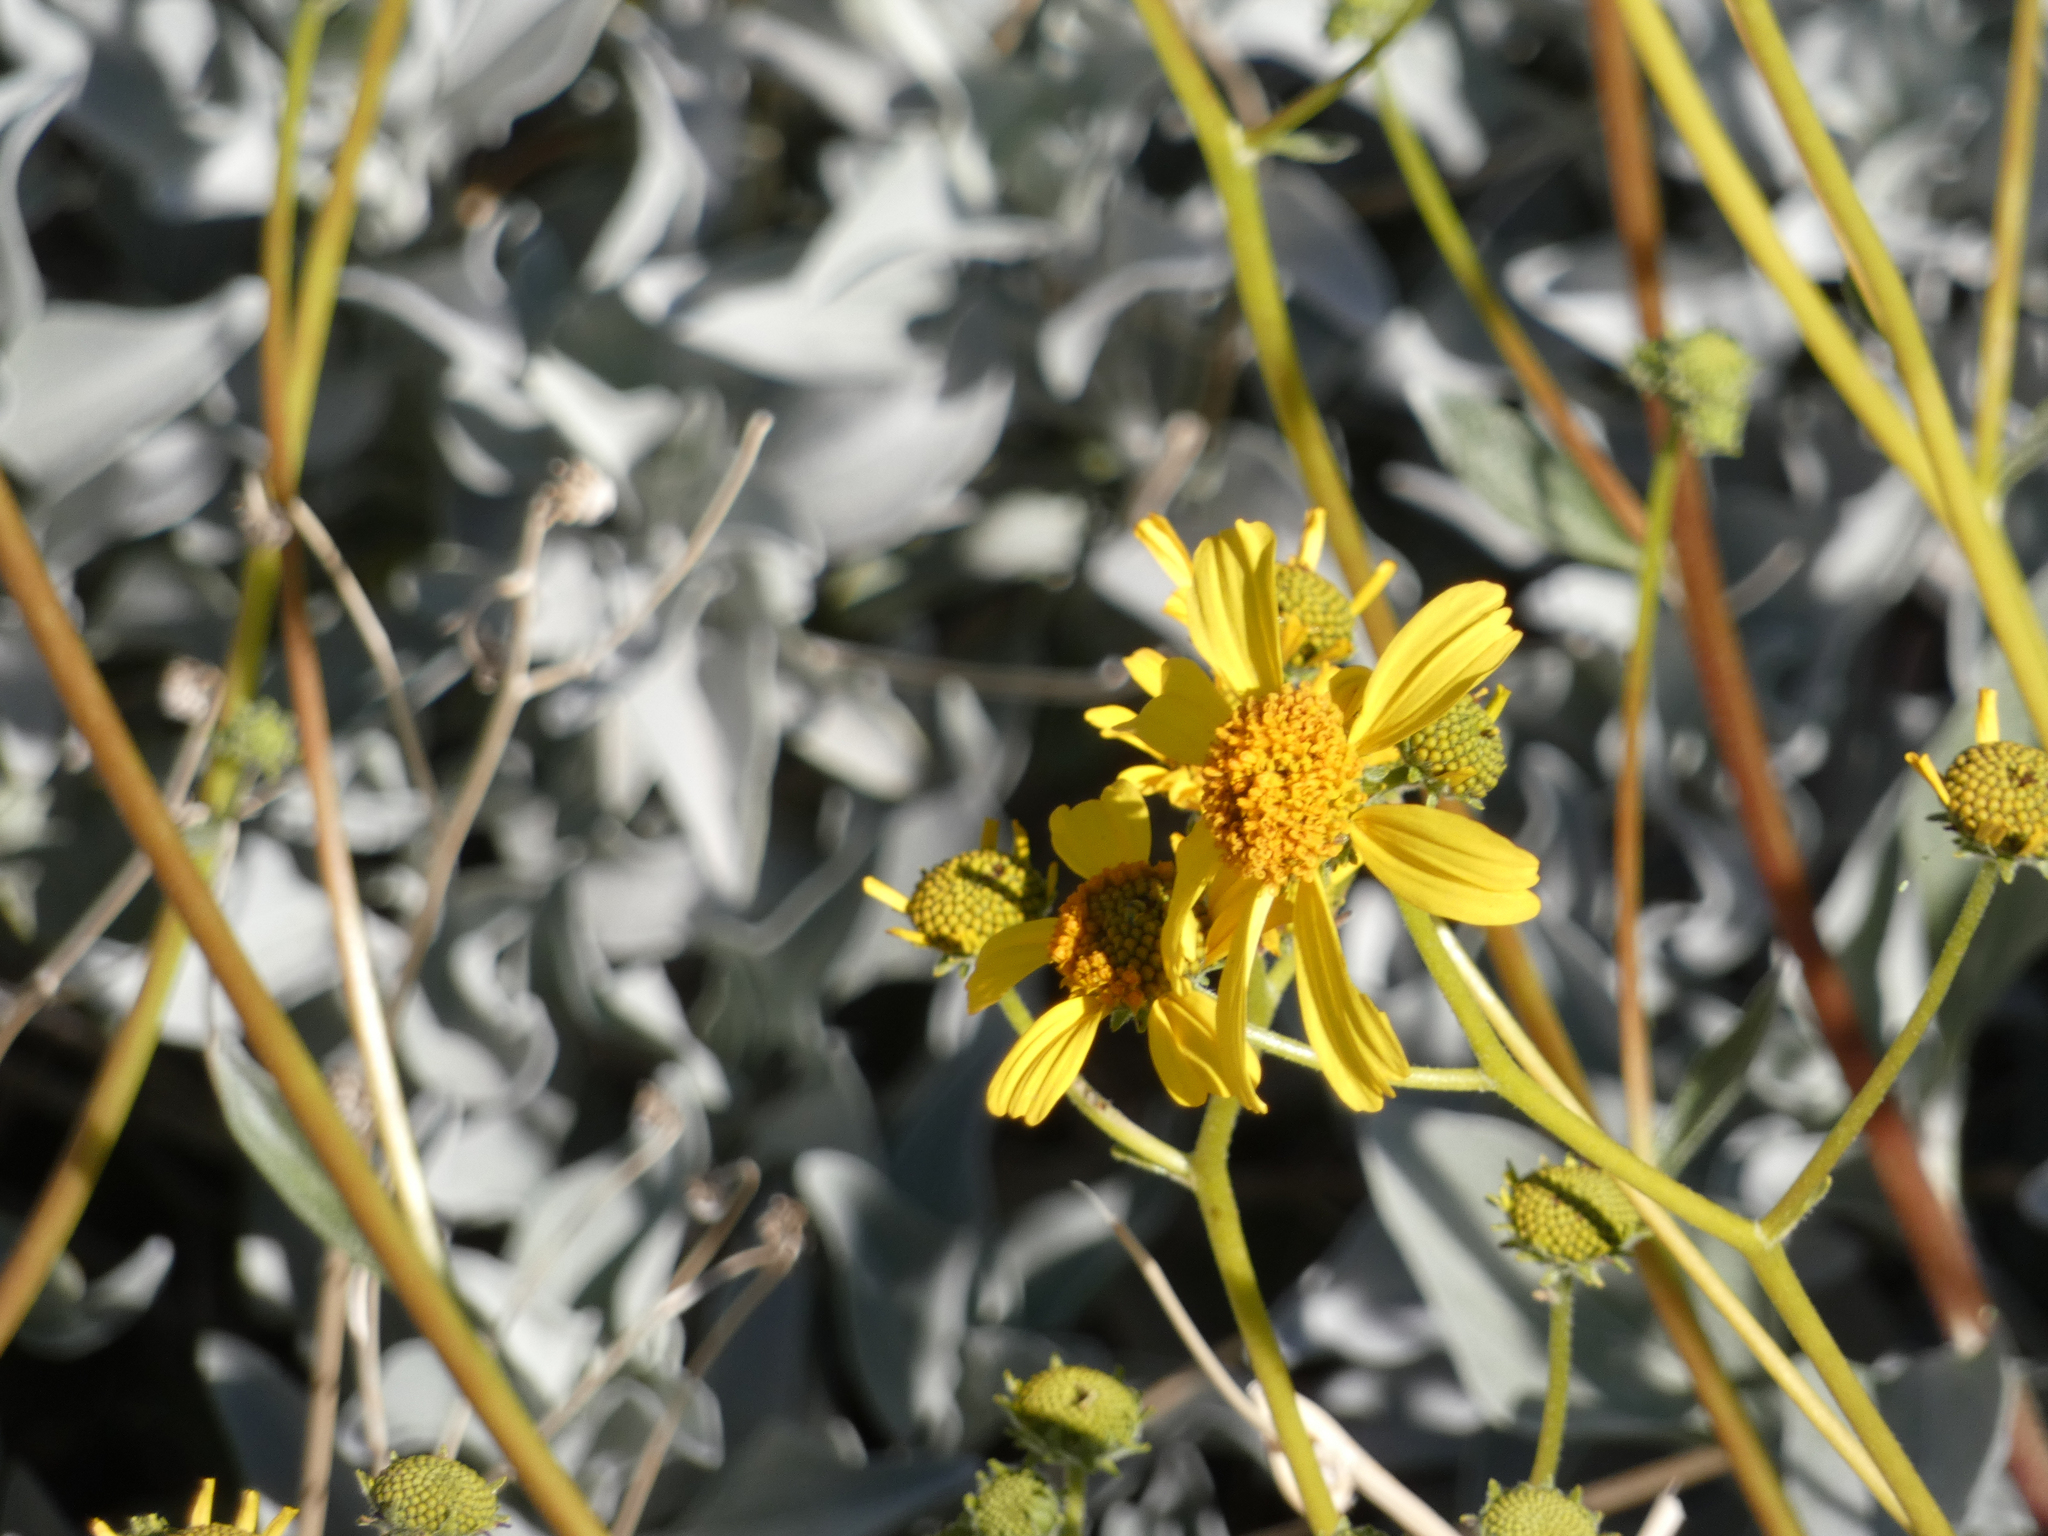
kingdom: Plantae
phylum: Tracheophyta
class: Magnoliopsida
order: Asterales
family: Asteraceae
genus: Encelia
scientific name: Encelia farinosa
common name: Brittlebush
